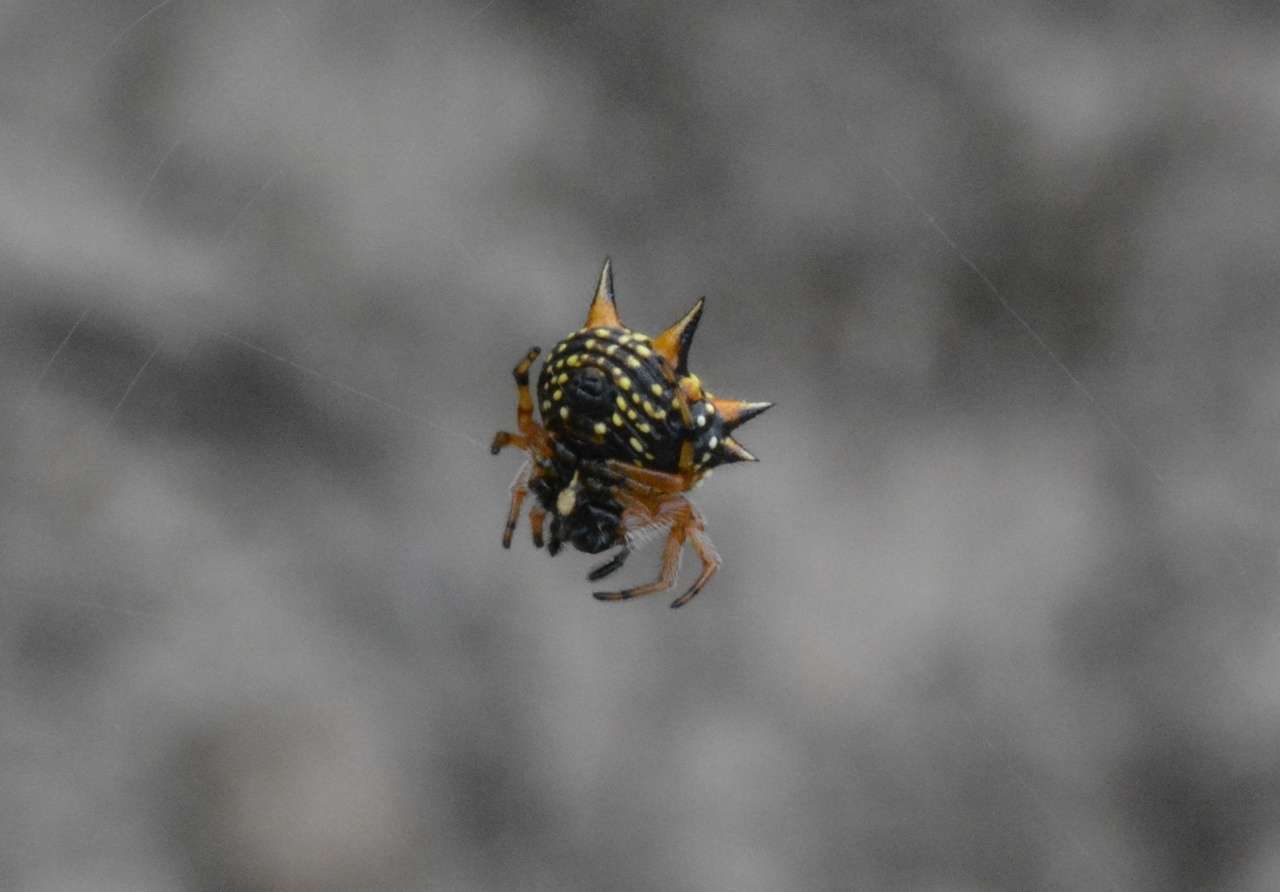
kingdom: Animalia
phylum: Arthropoda
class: Arachnida
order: Araneae
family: Araneidae
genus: Austracantha
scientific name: Austracantha minax
